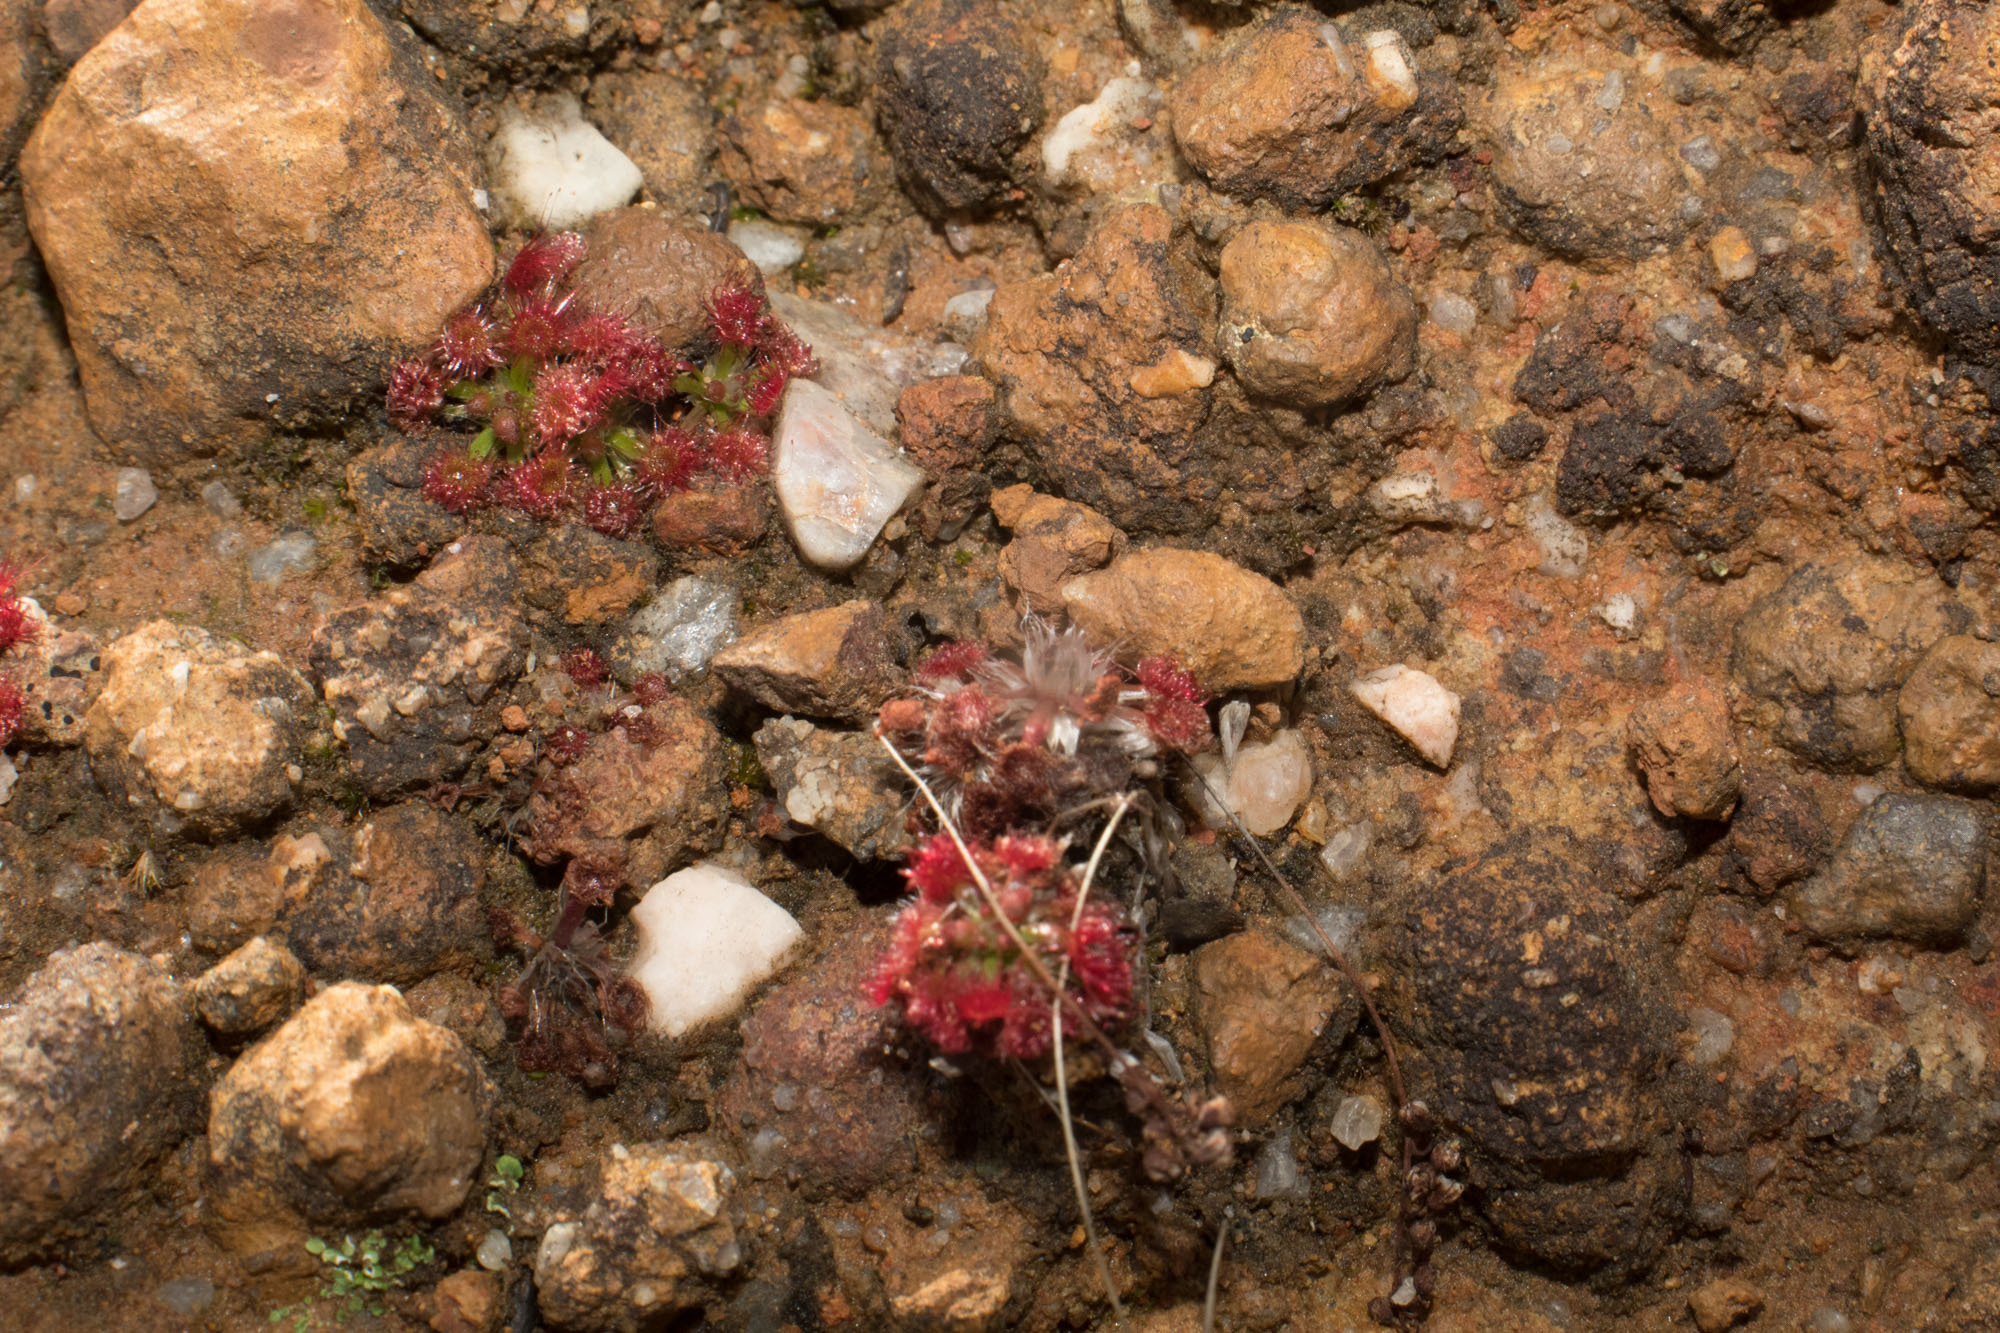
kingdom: Plantae
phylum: Tracheophyta
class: Magnoliopsida
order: Caryophyllales
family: Droseraceae
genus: Drosera
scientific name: Drosera androsacea
